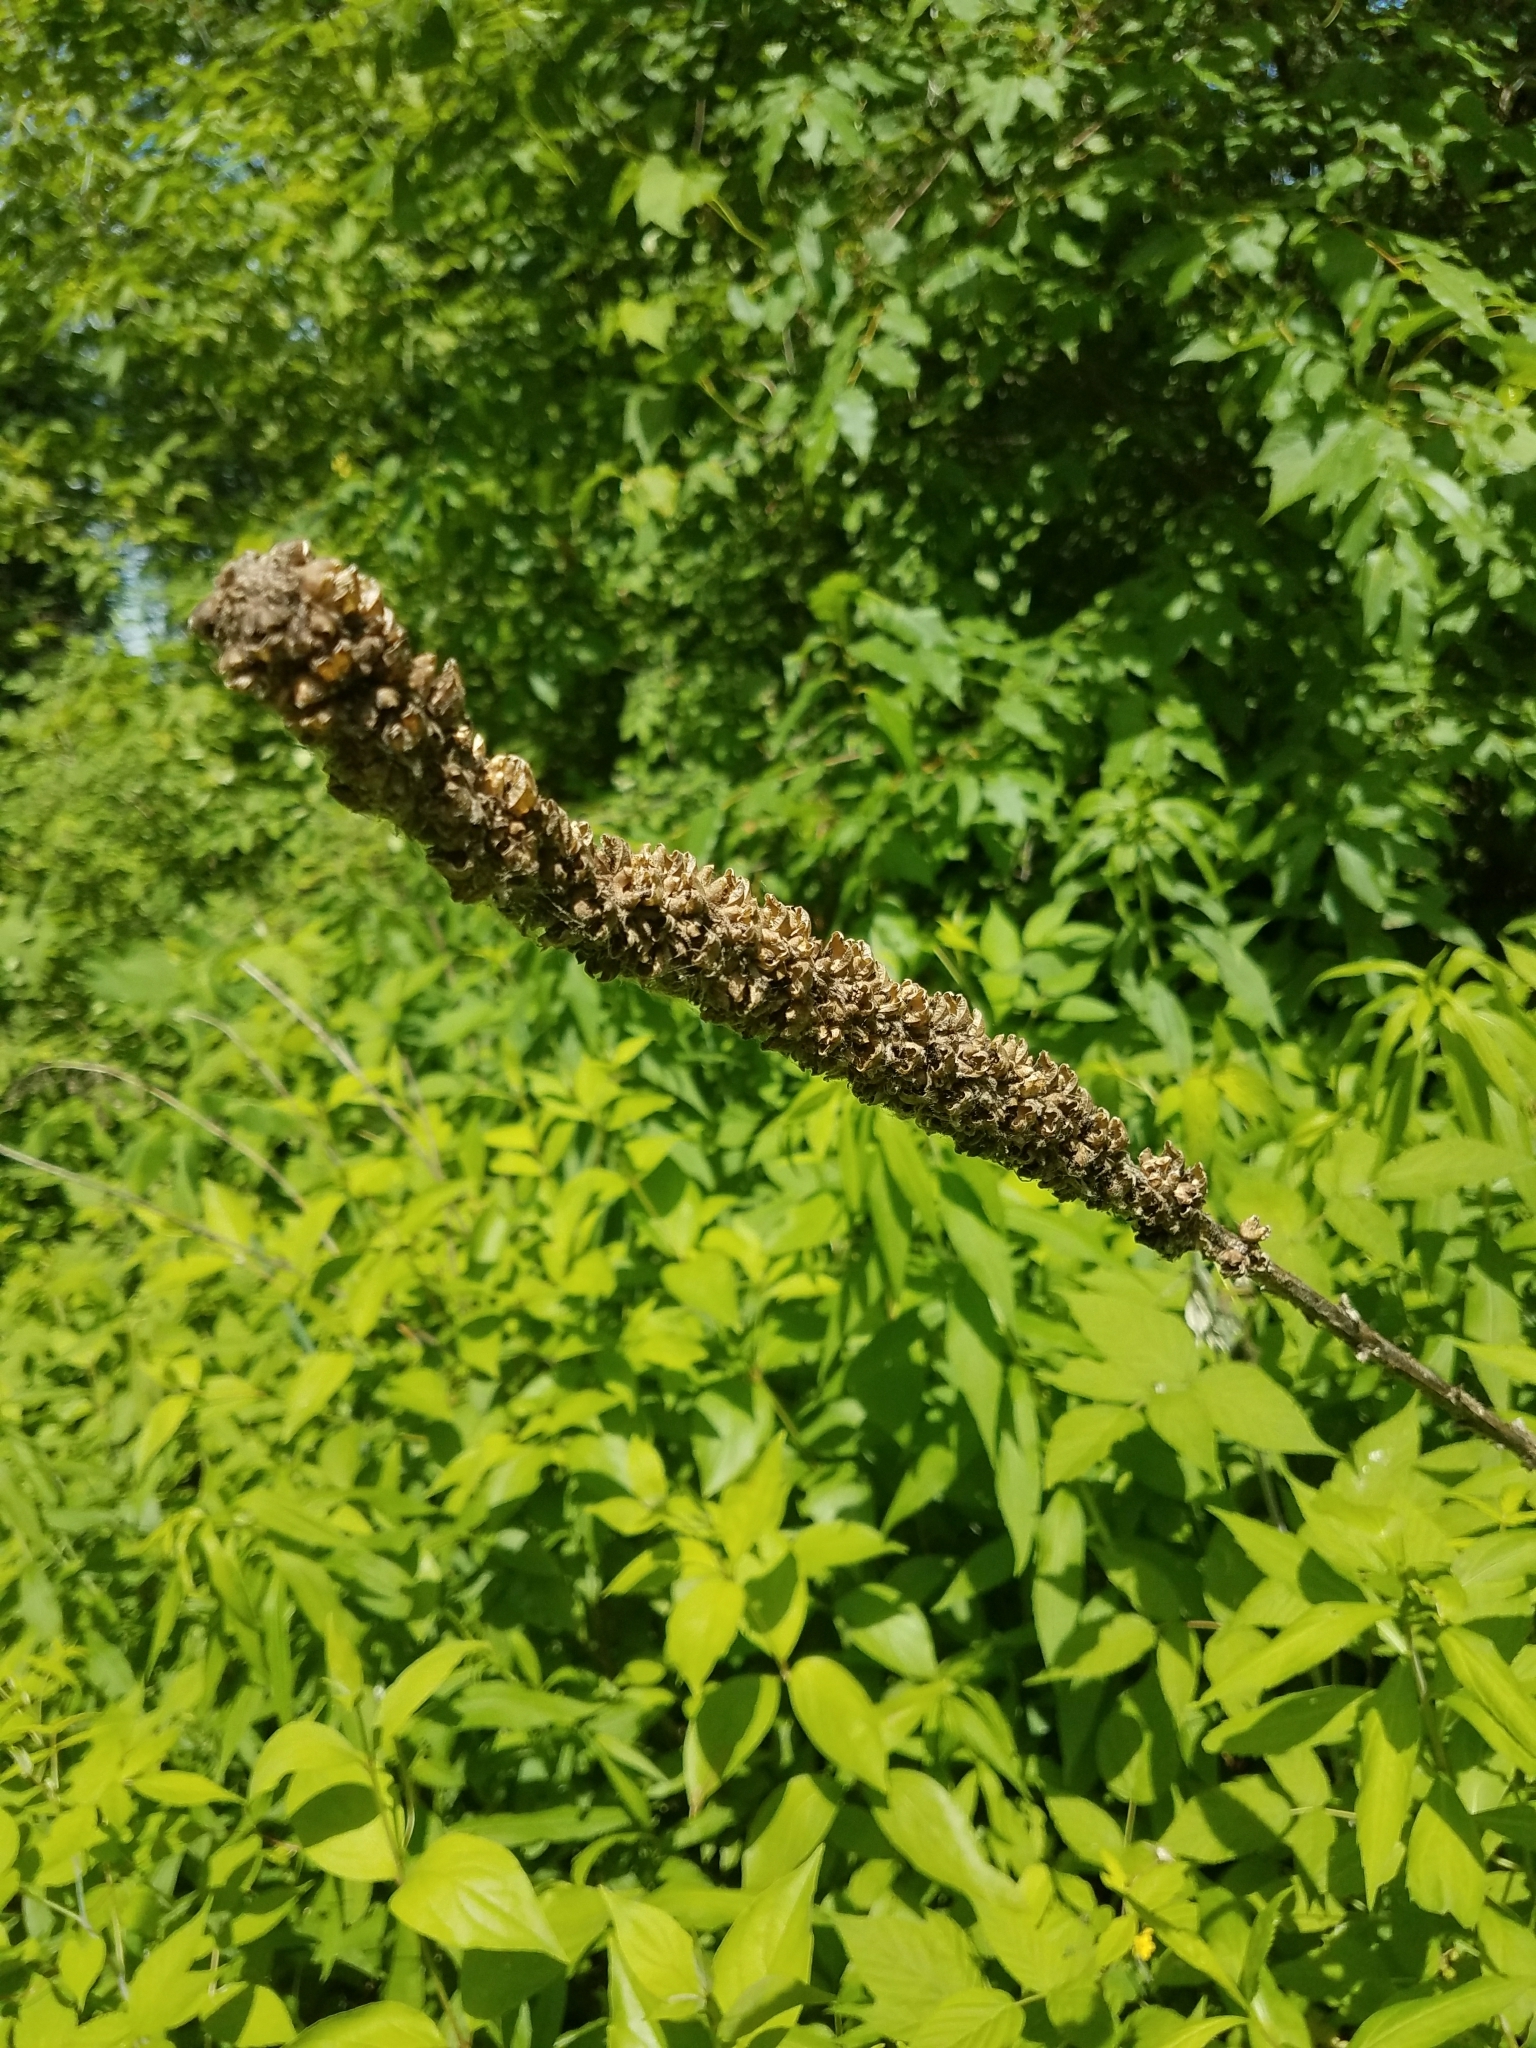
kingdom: Plantae
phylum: Tracheophyta
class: Magnoliopsida
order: Lamiales
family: Scrophulariaceae
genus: Verbascum
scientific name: Verbascum thapsus
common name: Common mullein
